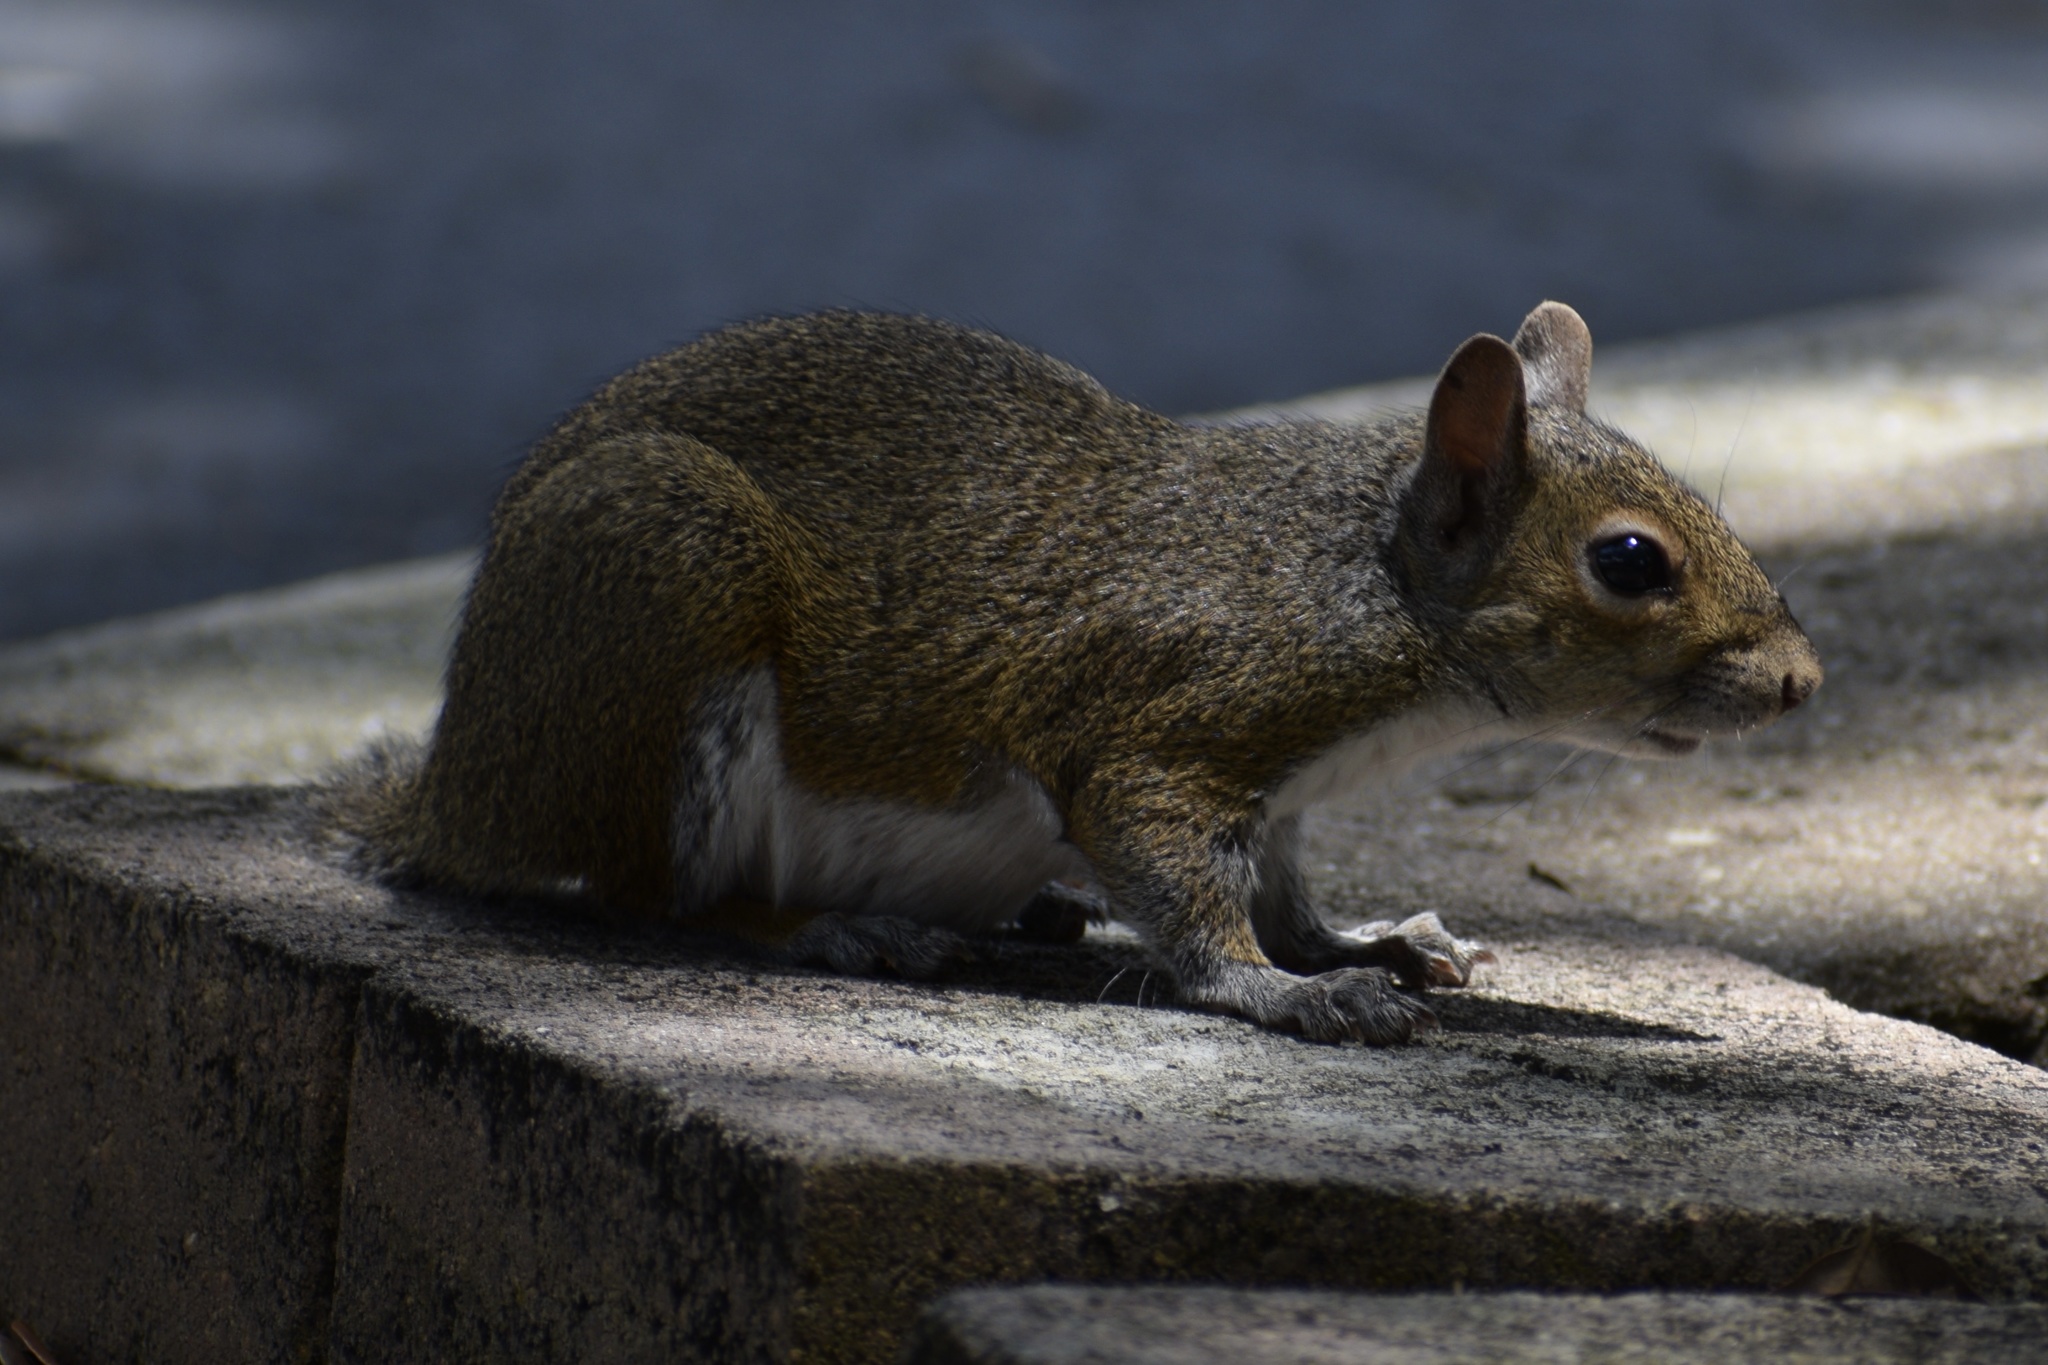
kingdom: Animalia
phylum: Chordata
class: Mammalia
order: Rodentia
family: Sciuridae
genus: Sciurus
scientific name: Sciurus carolinensis
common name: Eastern gray squirrel
